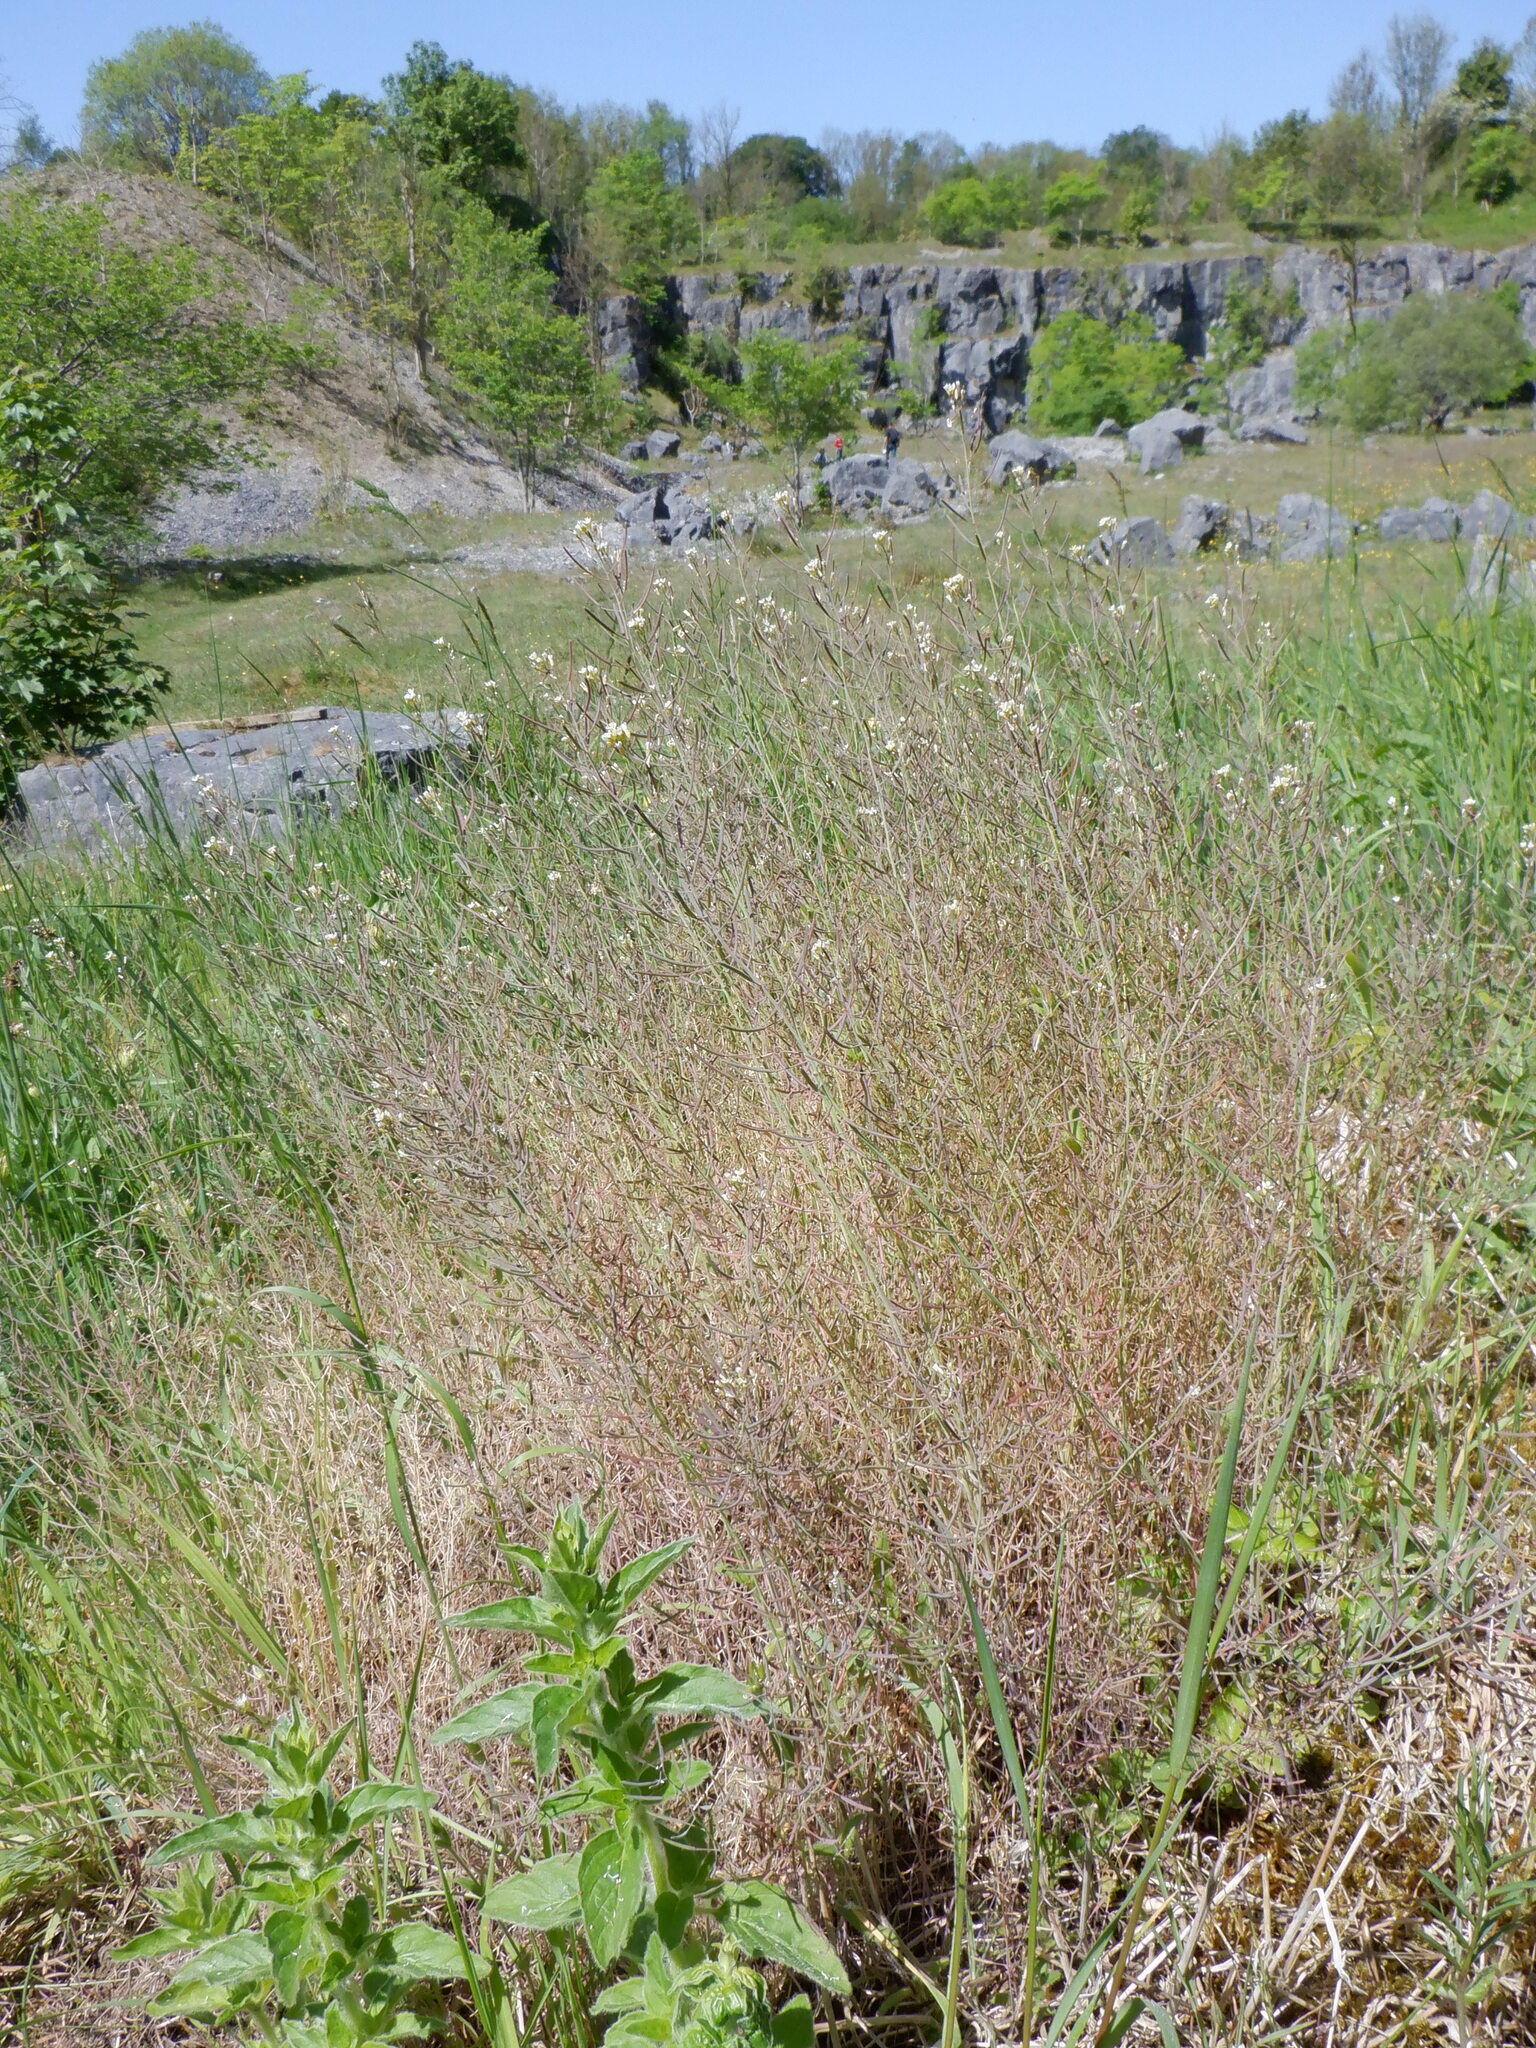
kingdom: Plantae
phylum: Tracheophyta
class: Magnoliopsida
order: Brassicales
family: Brassicaceae
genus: Arabidopsis
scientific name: Arabidopsis thaliana
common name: Thale cress
